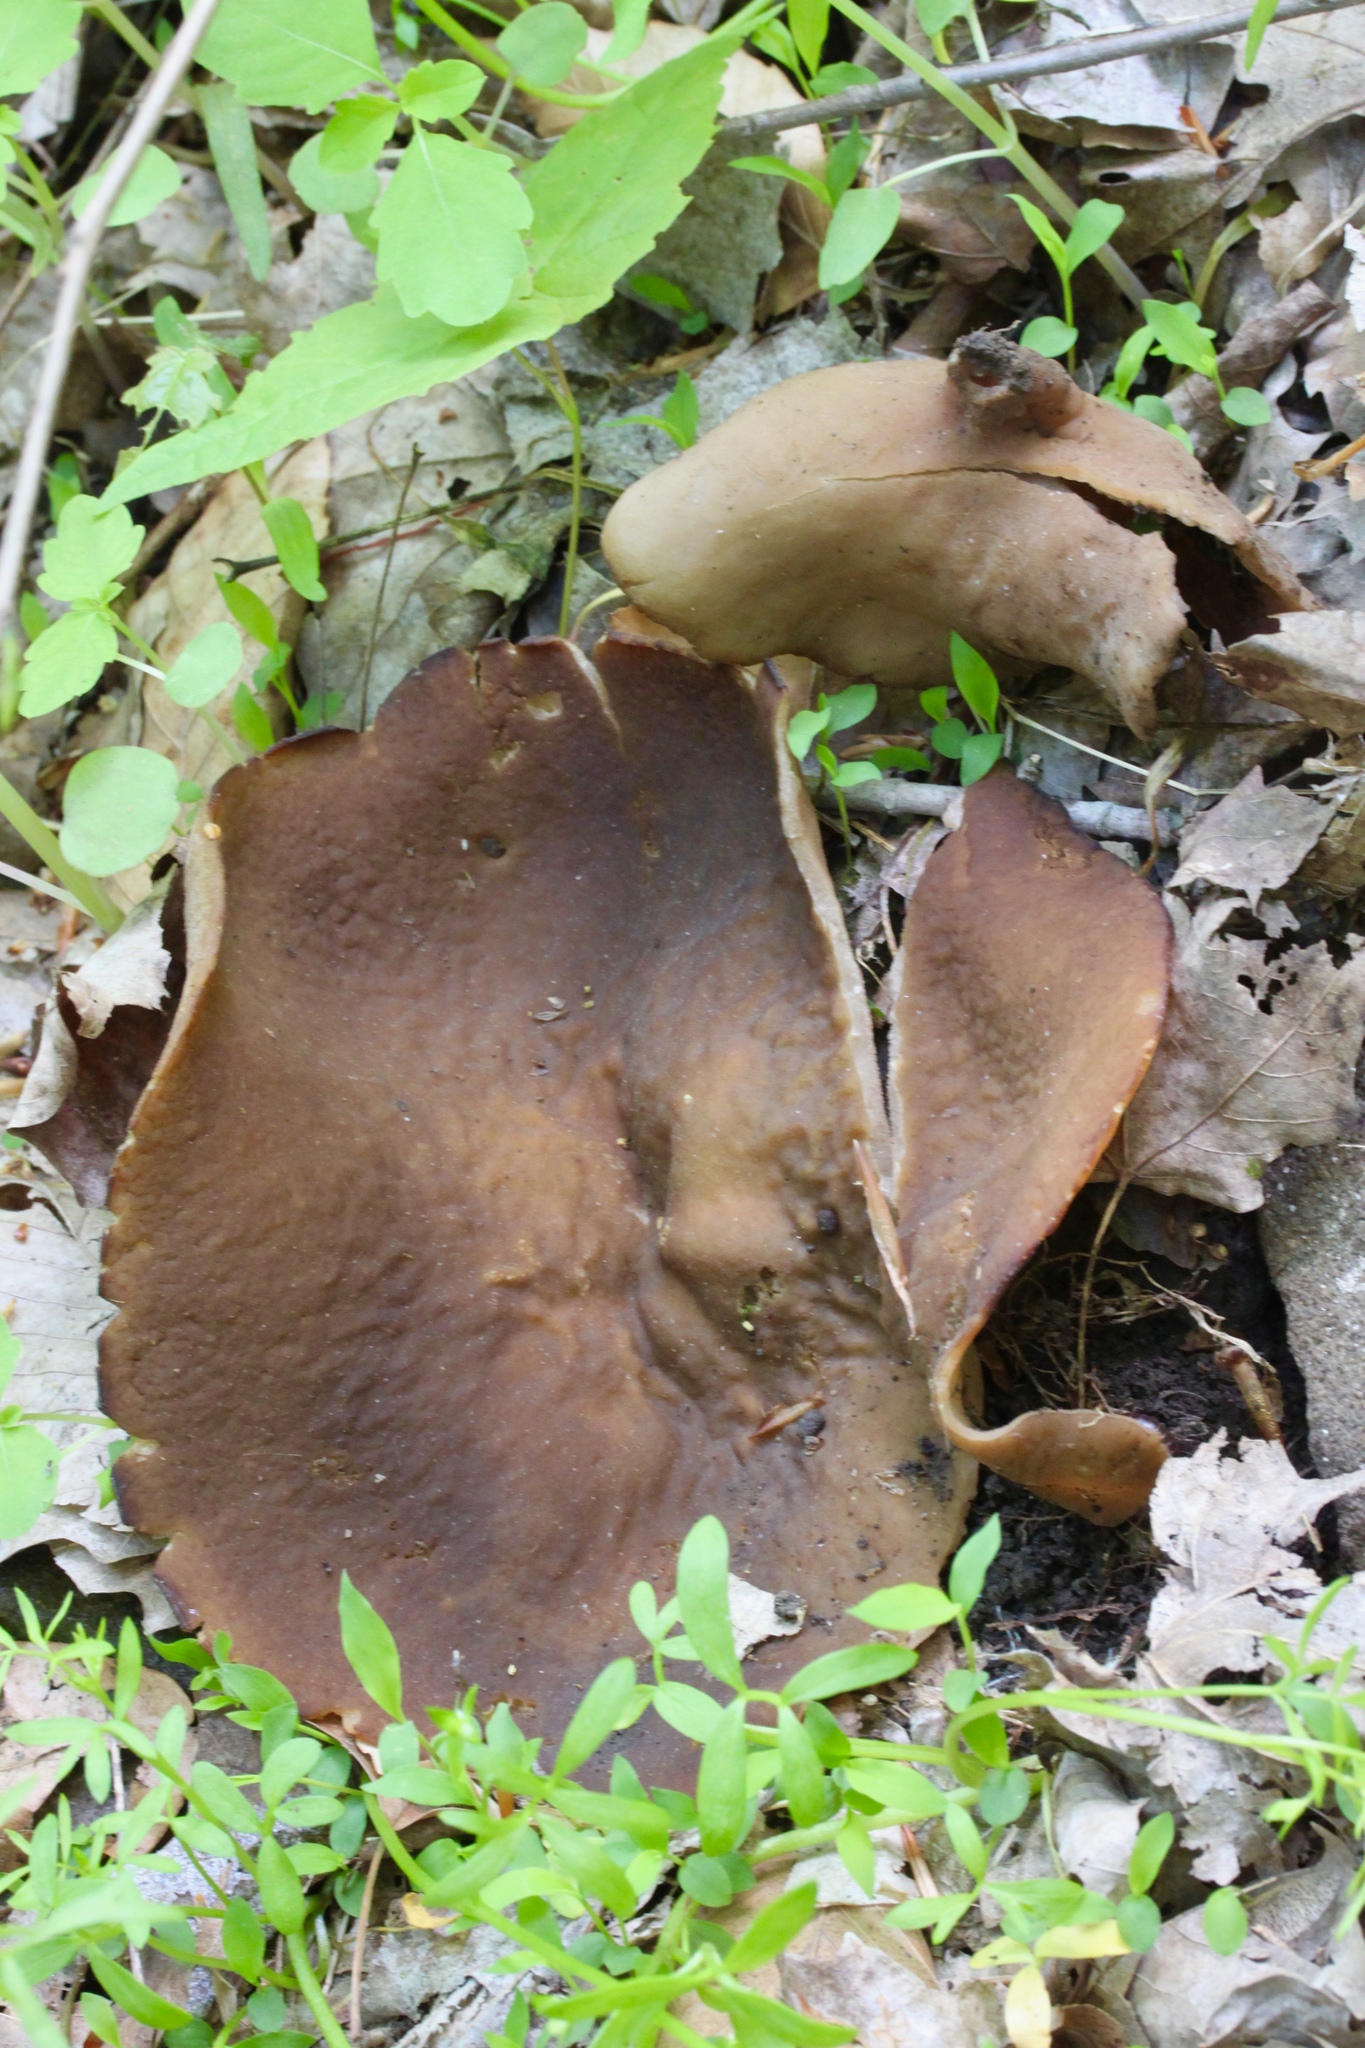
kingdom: Fungi
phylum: Ascomycota
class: Pezizomycetes
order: Pezizales
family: Morchellaceae
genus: Disciotis
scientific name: Disciotis venosa
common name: Bleach cup
